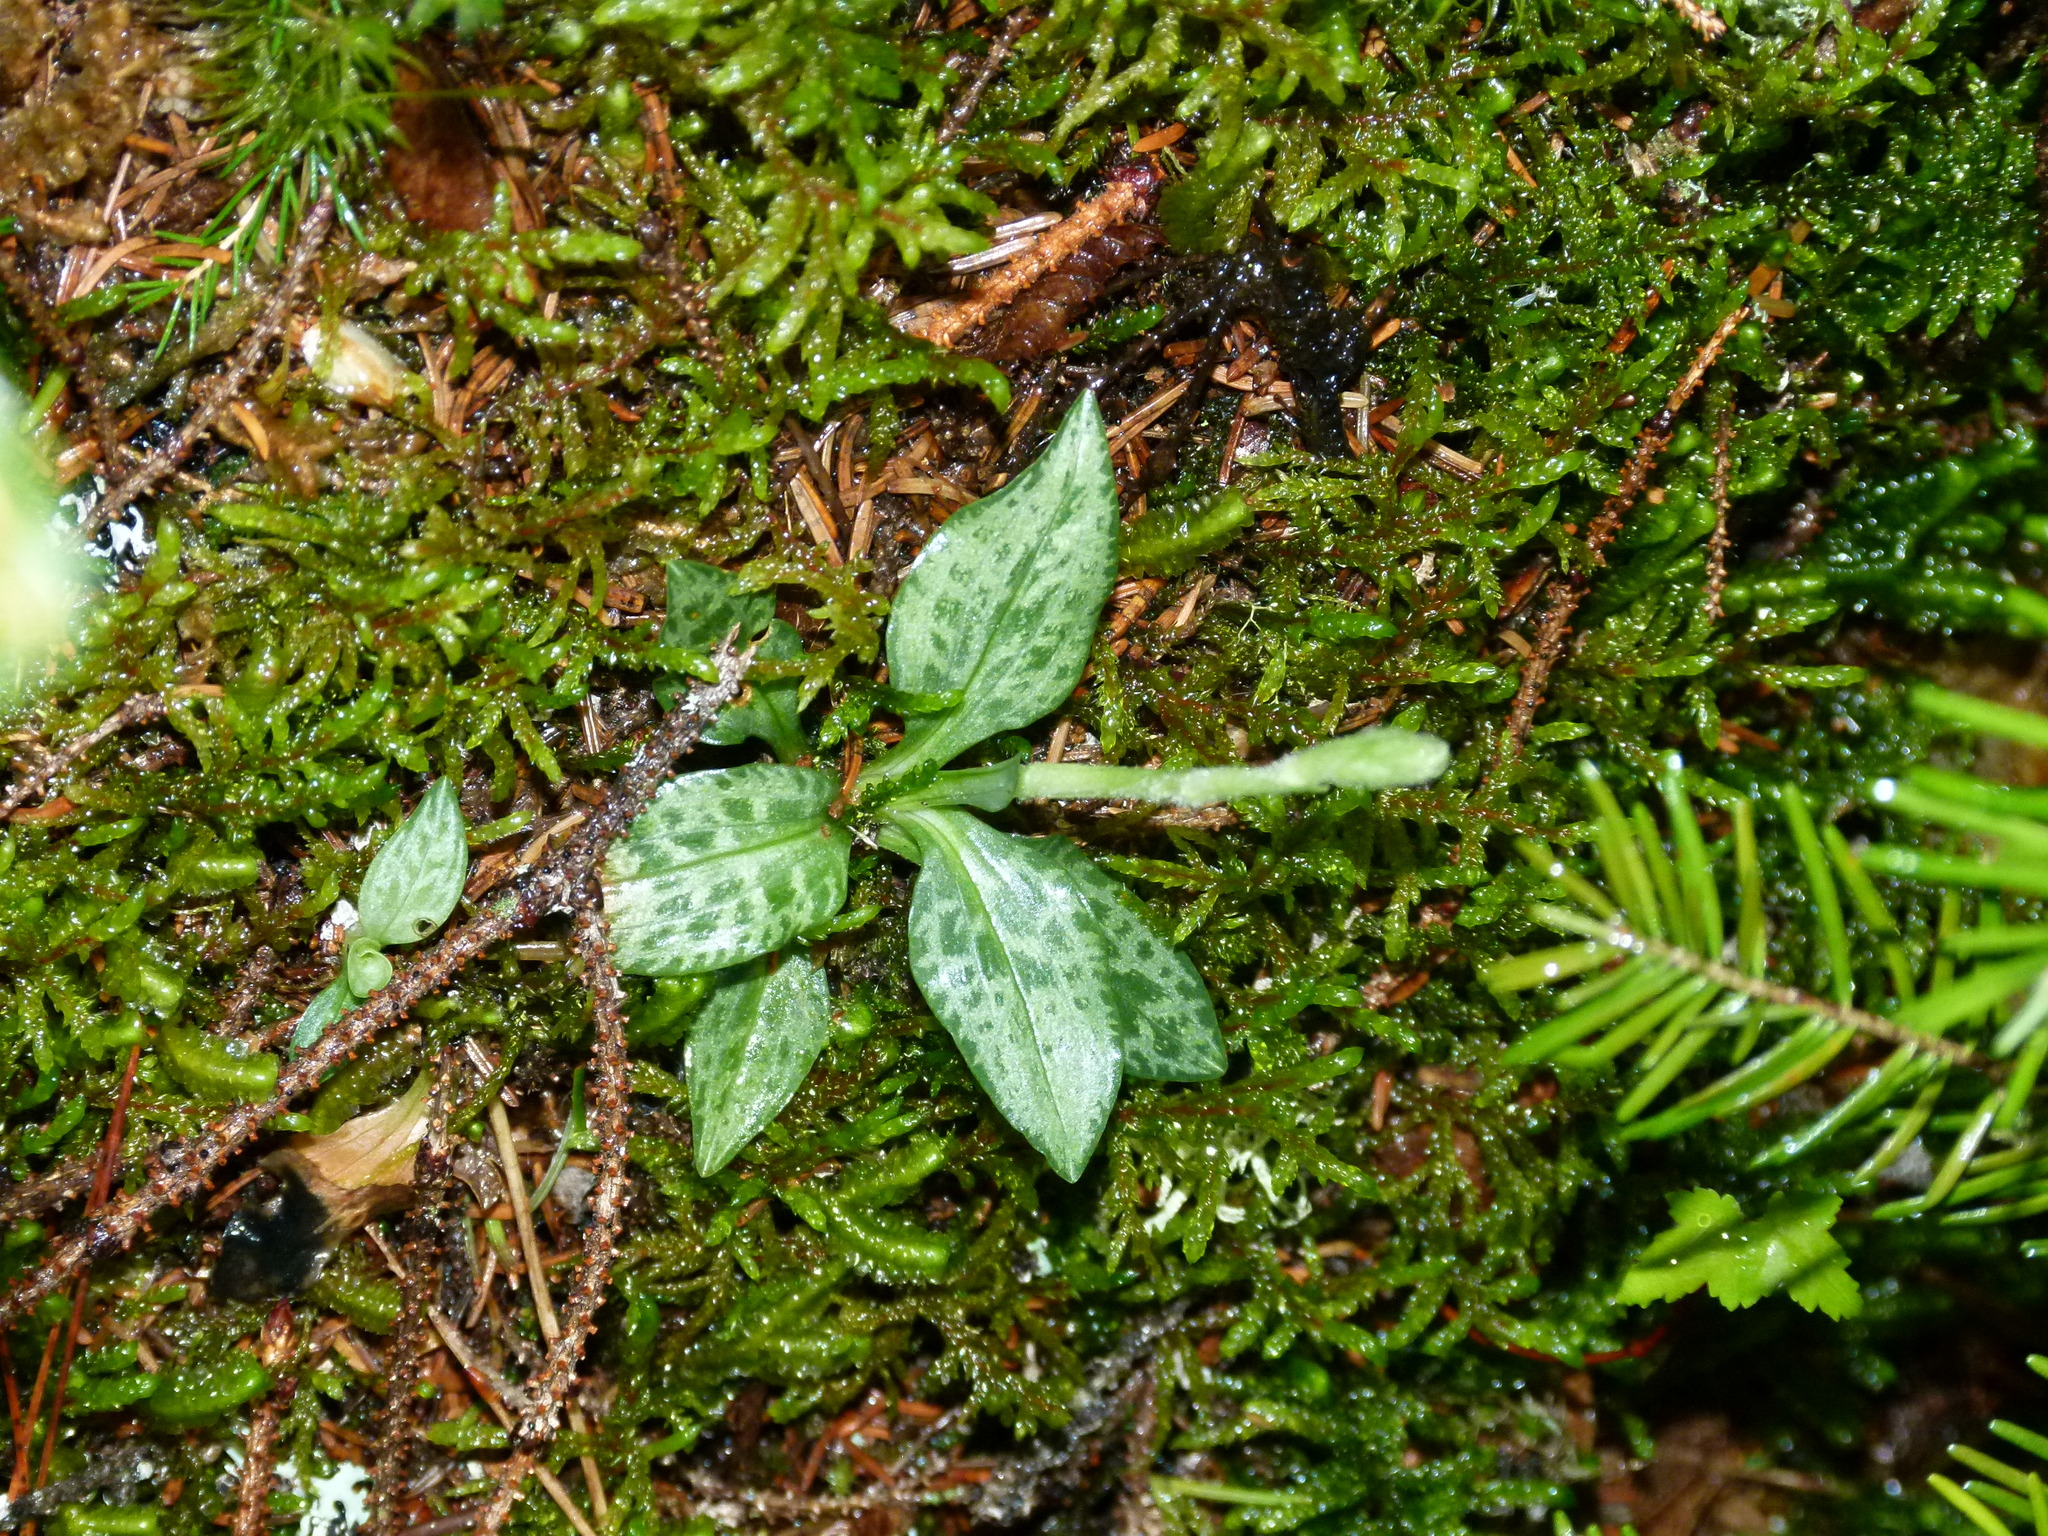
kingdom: Plantae
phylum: Tracheophyta
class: Liliopsida
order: Asparagales
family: Orchidaceae
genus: Goodyera
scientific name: Goodyera tesselata
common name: Checkered rattlesnake-plantain
